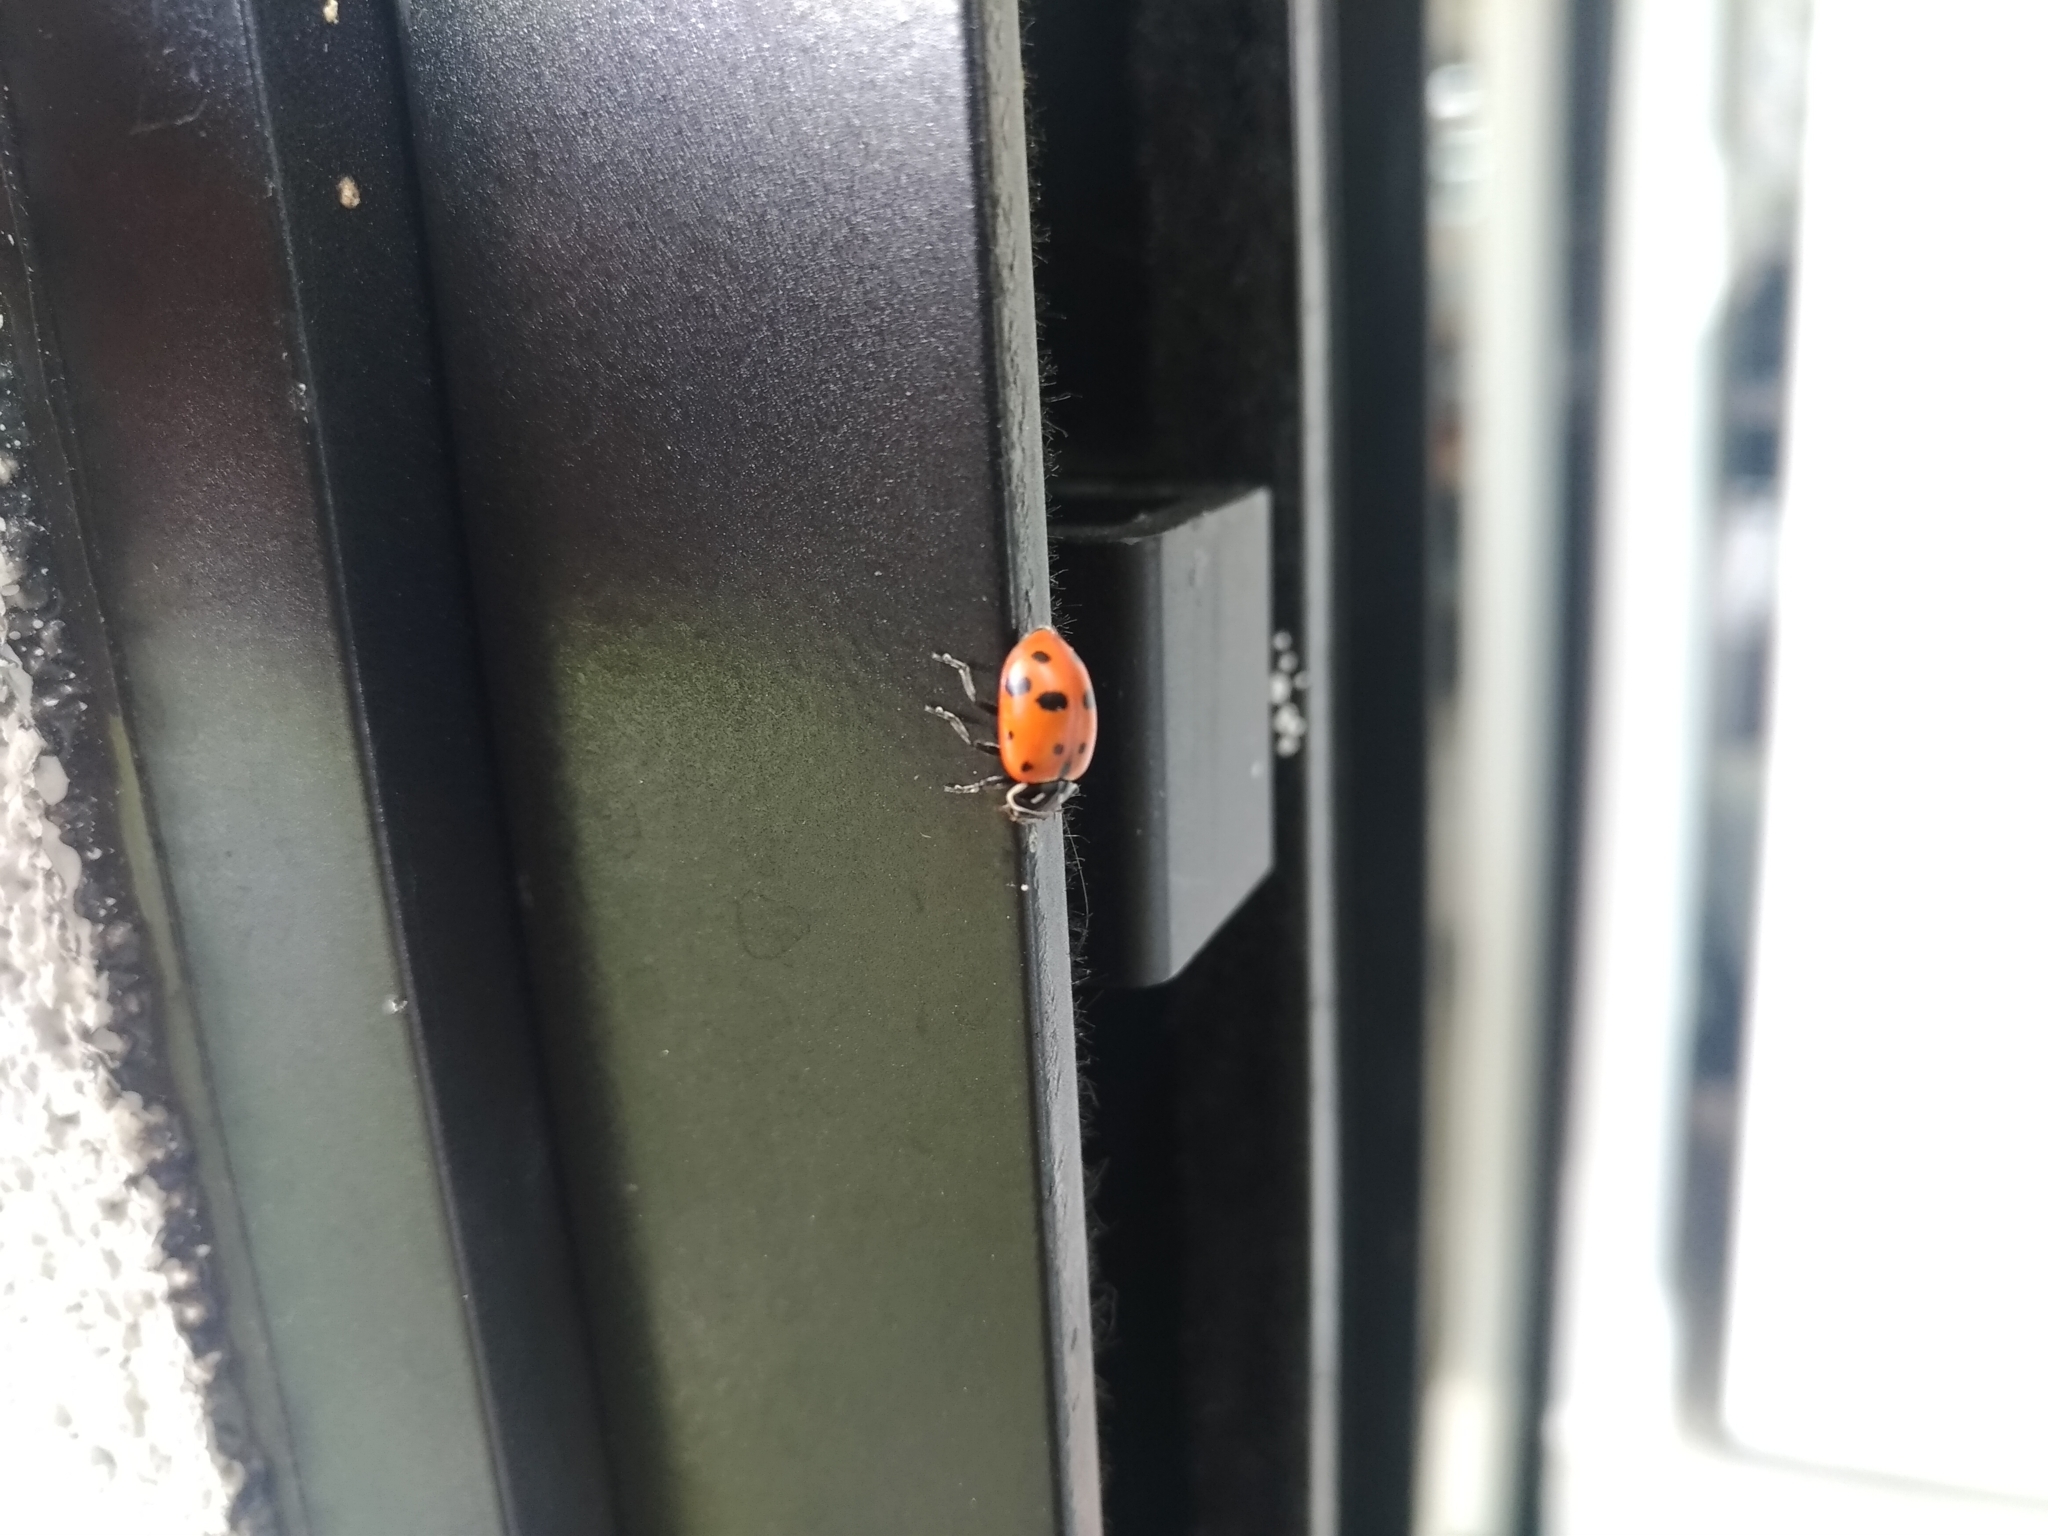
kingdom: Animalia
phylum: Arthropoda
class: Insecta
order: Coleoptera
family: Coccinellidae
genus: Hippodamia
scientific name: Hippodamia convergens
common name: Convergent lady beetle
